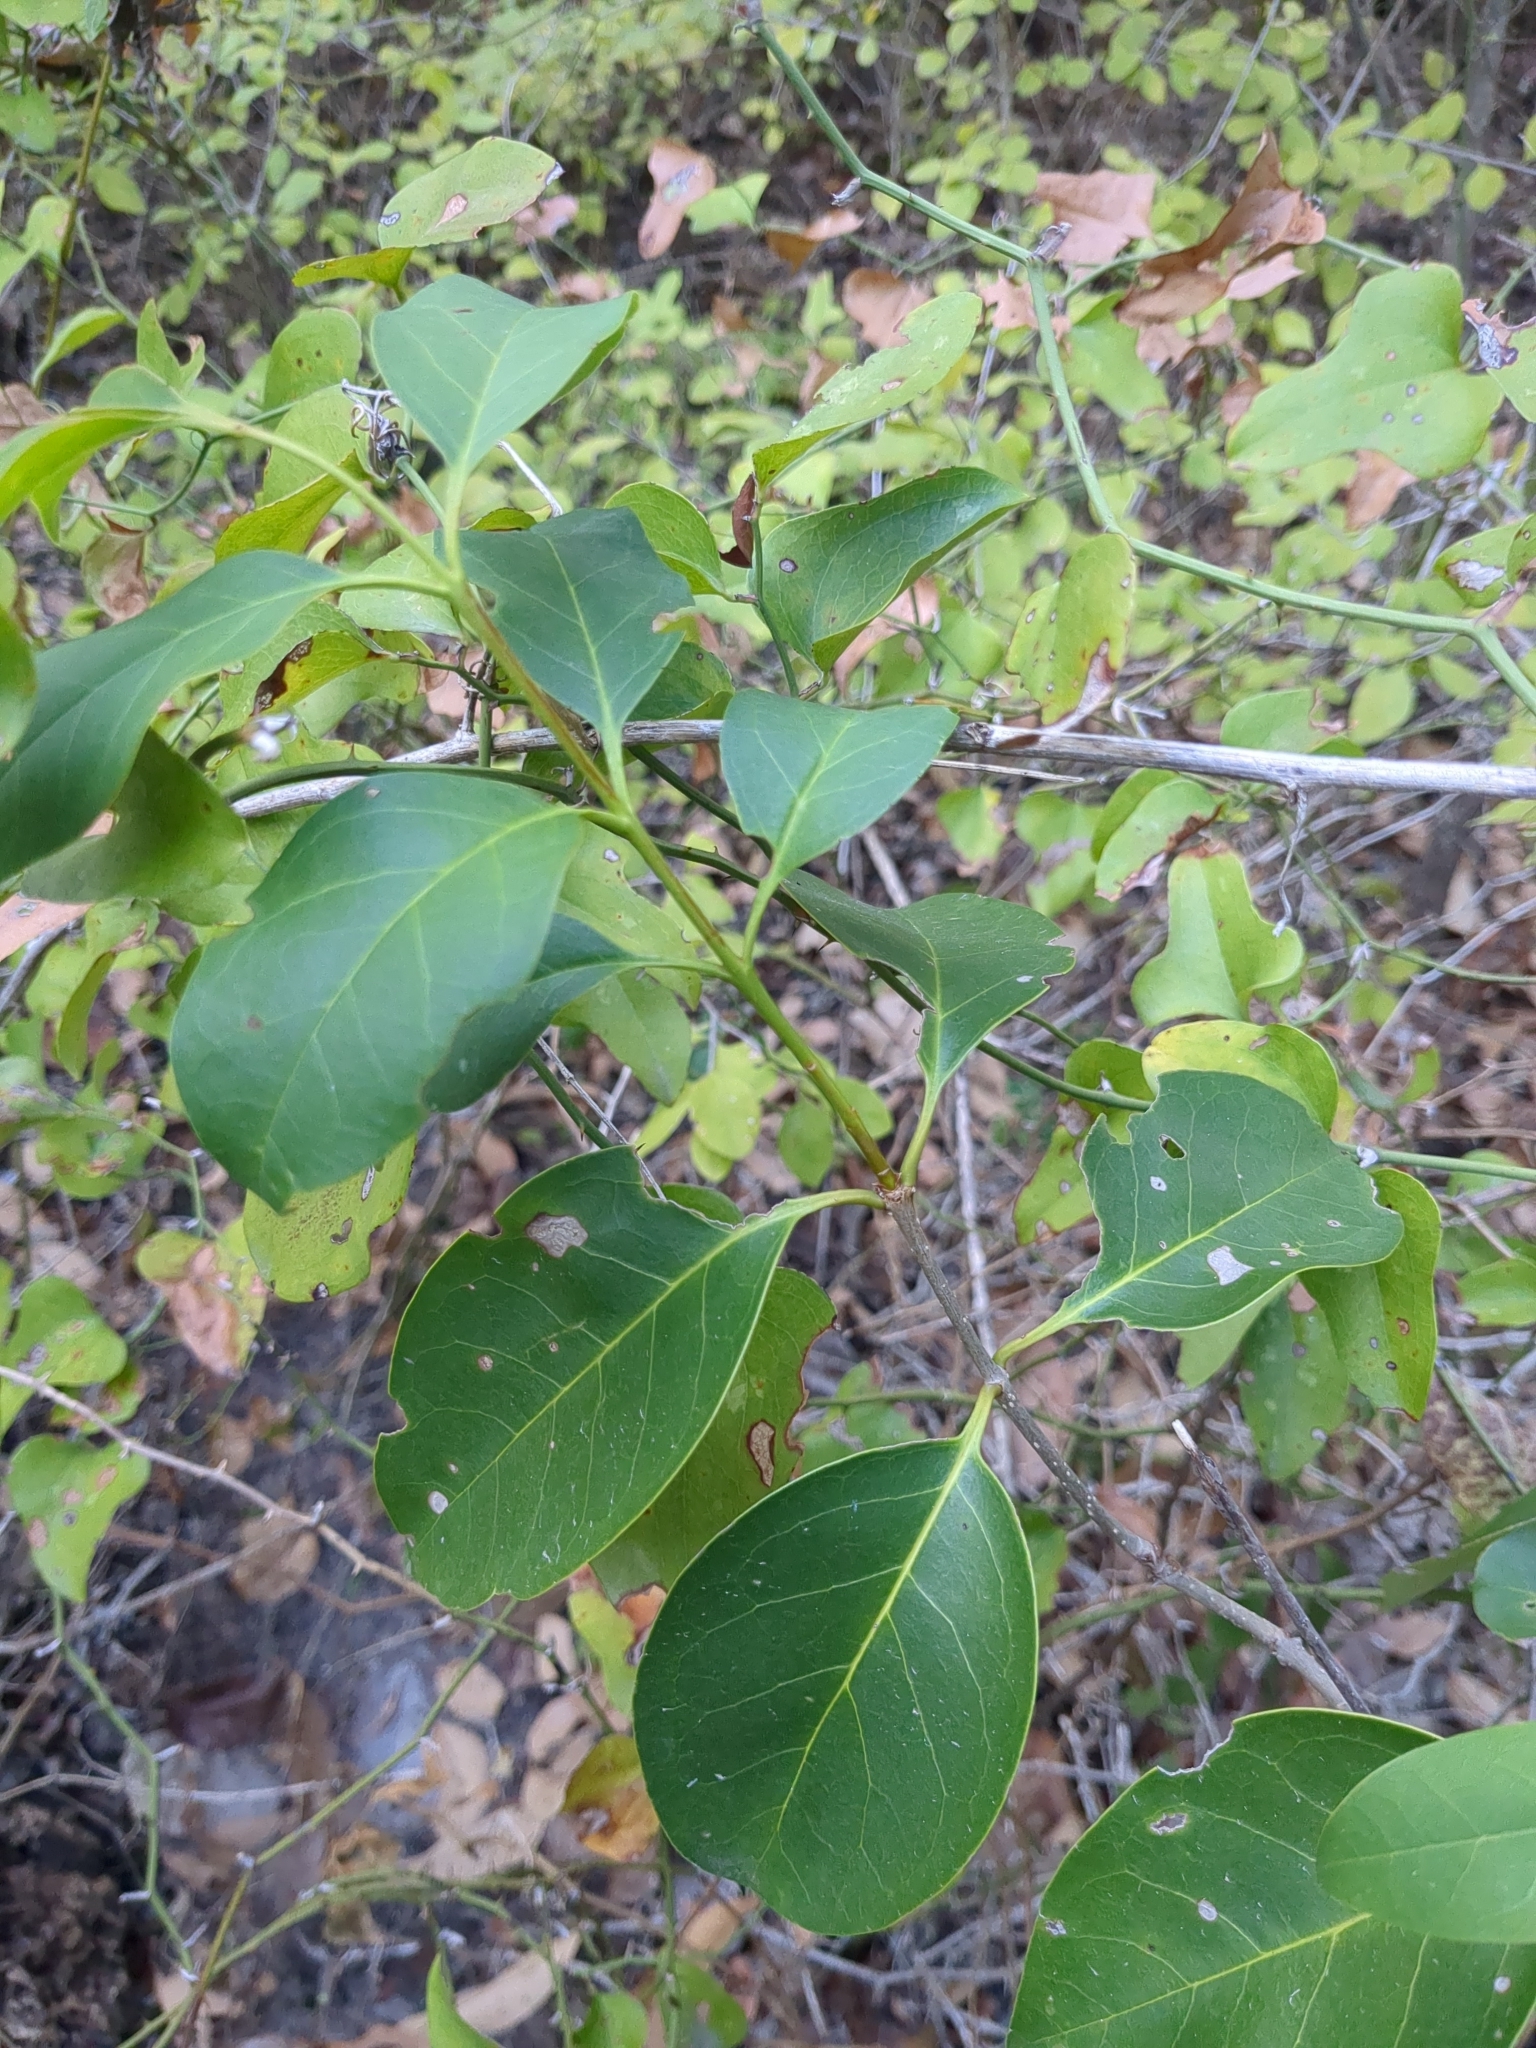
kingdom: Plantae
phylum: Tracheophyta
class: Magnoliopsida
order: Lamiales
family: Oleaceae
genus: Ligustrum
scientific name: Ligustrum lucidum
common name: Glossy privet
